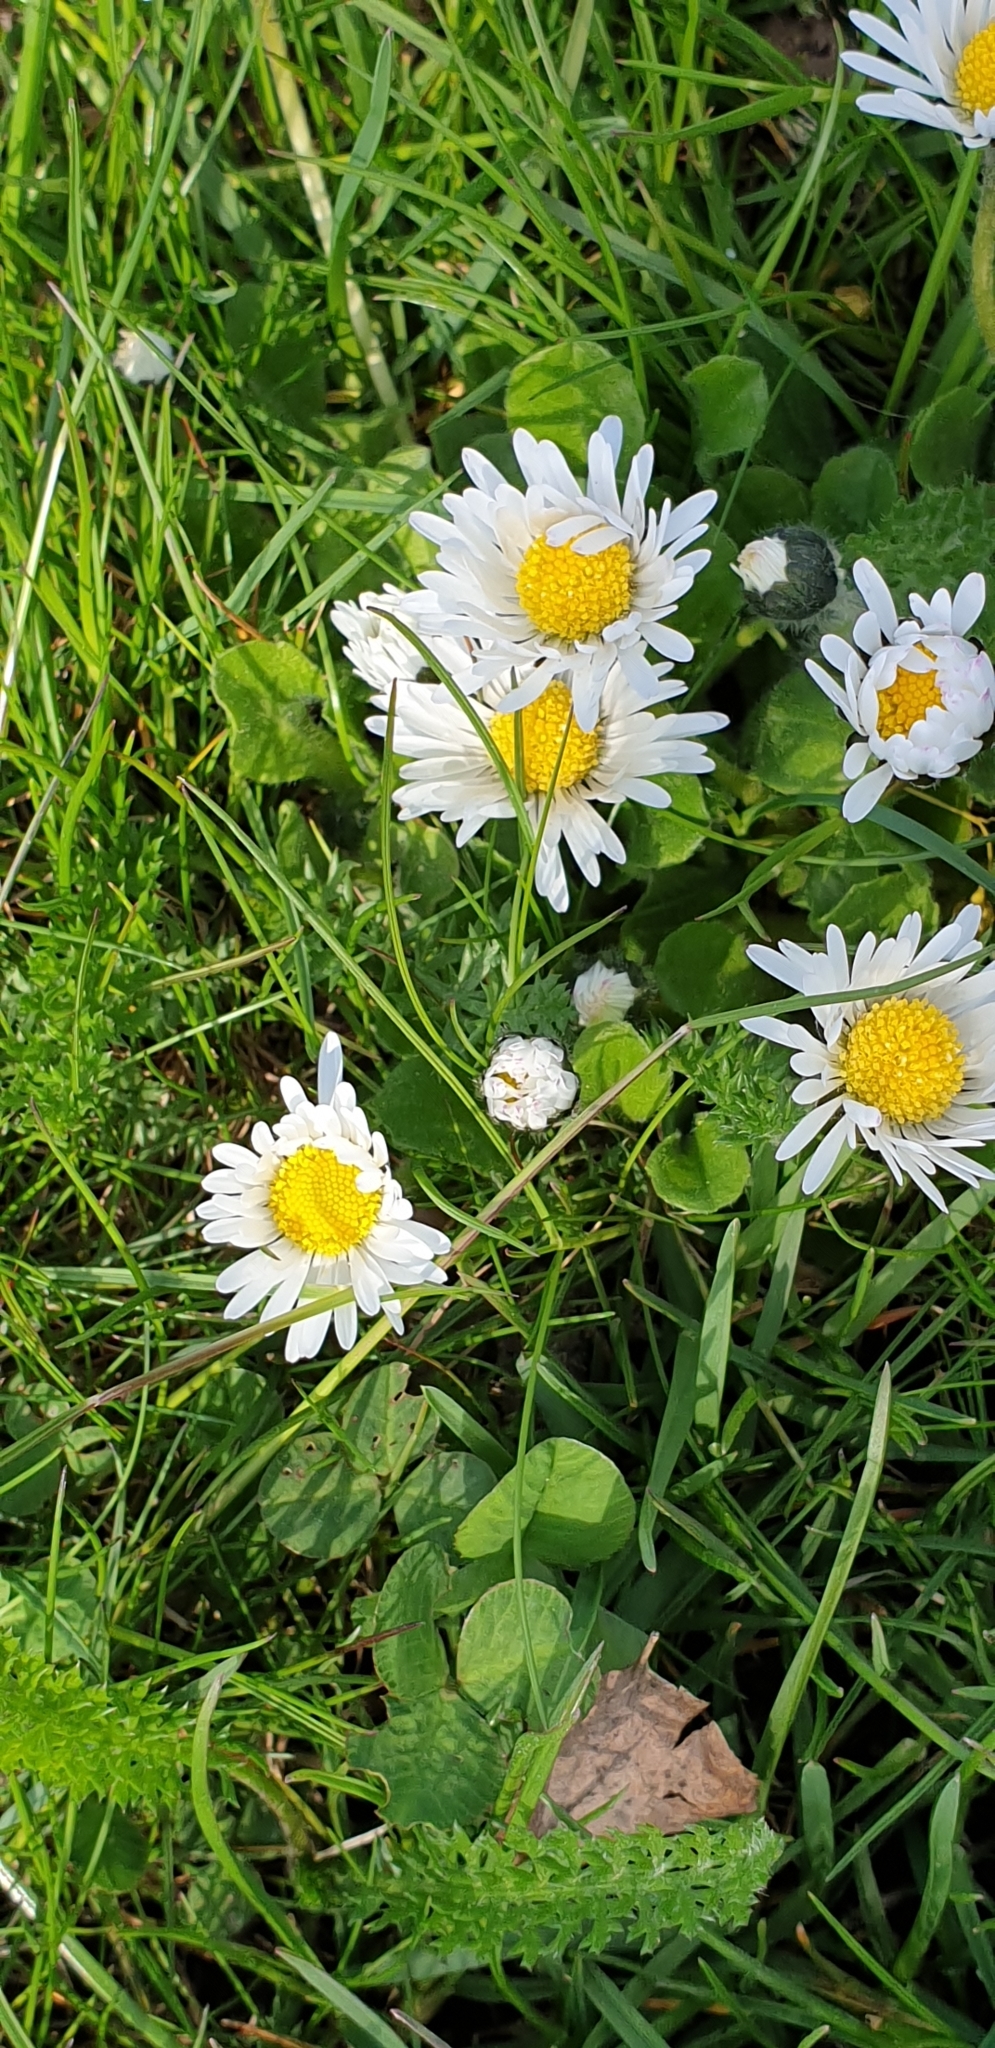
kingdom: Plantae
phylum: Tracheophyta
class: Magnoliopsida
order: Asterales
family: Asteraceae
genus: Bellis
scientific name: Bellis perennis
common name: Lawndaisy
